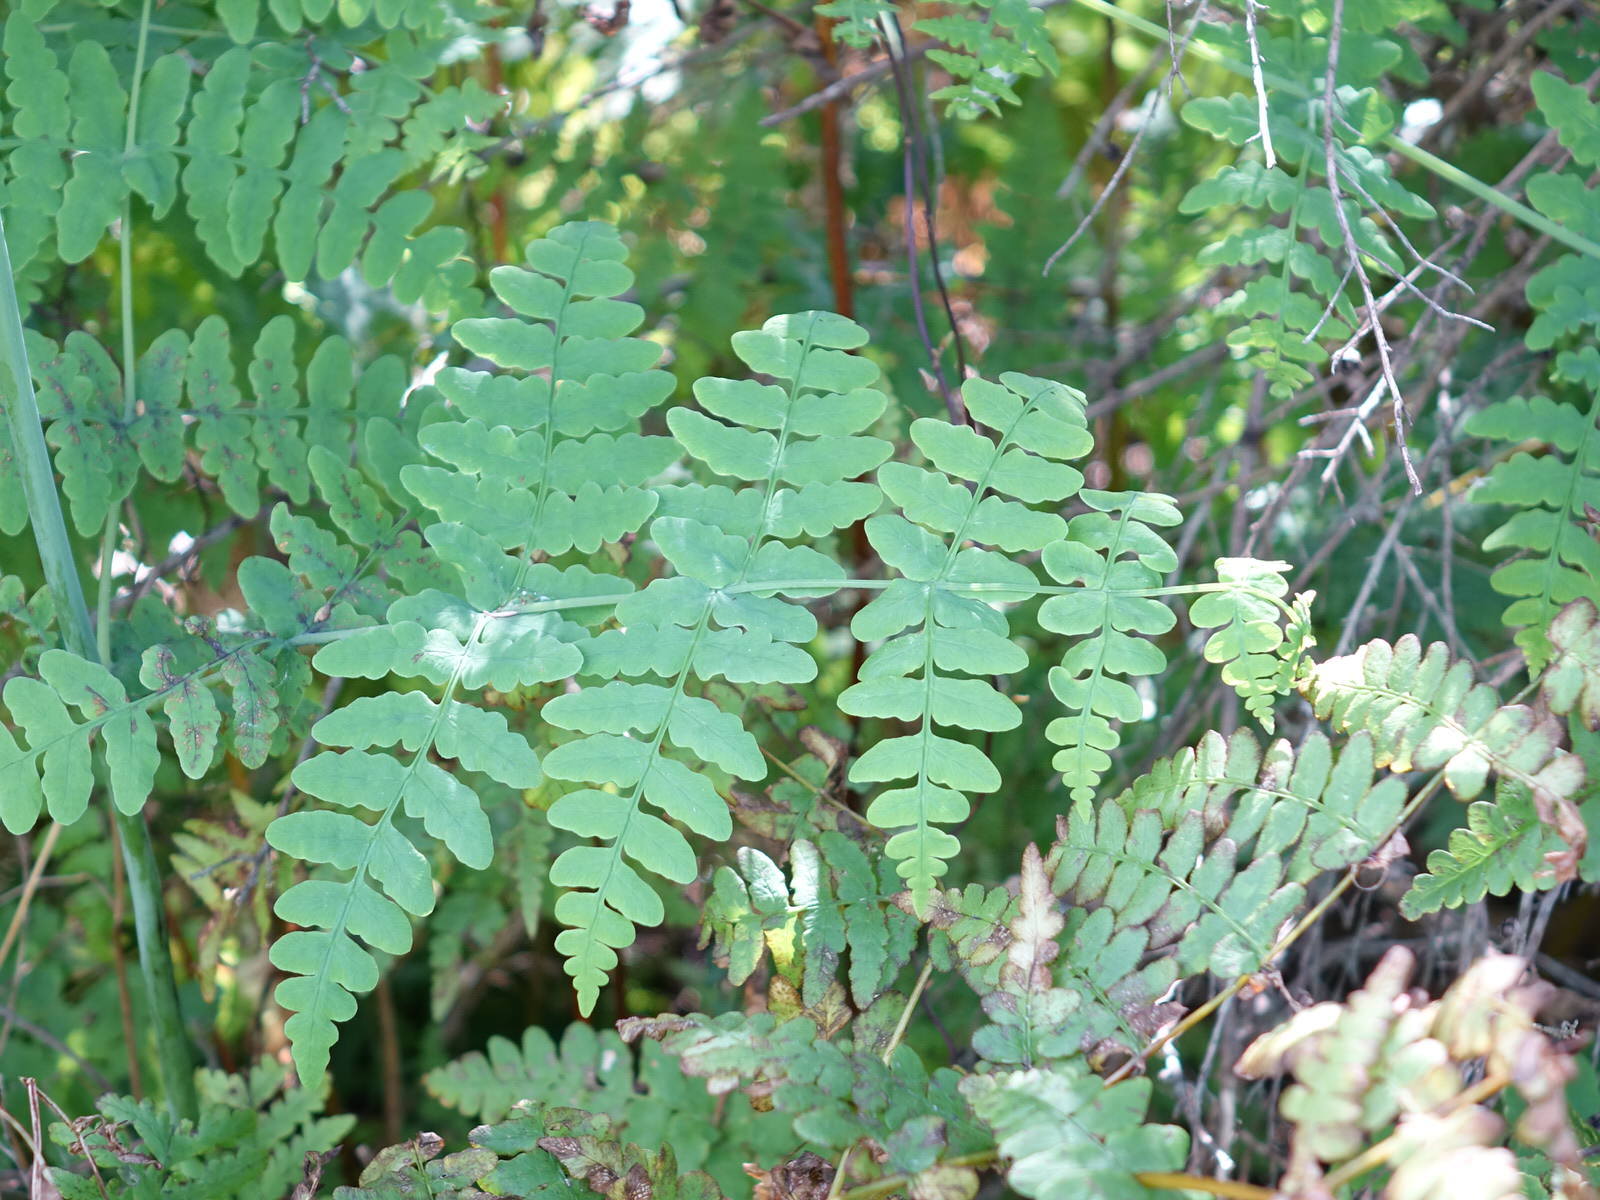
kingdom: Plantae
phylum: Tracheophyta
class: Polypodiopsida
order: Polypodiales
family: Dennstaedtiaceae
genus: Histiopteris
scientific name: Histiopteris incisa
